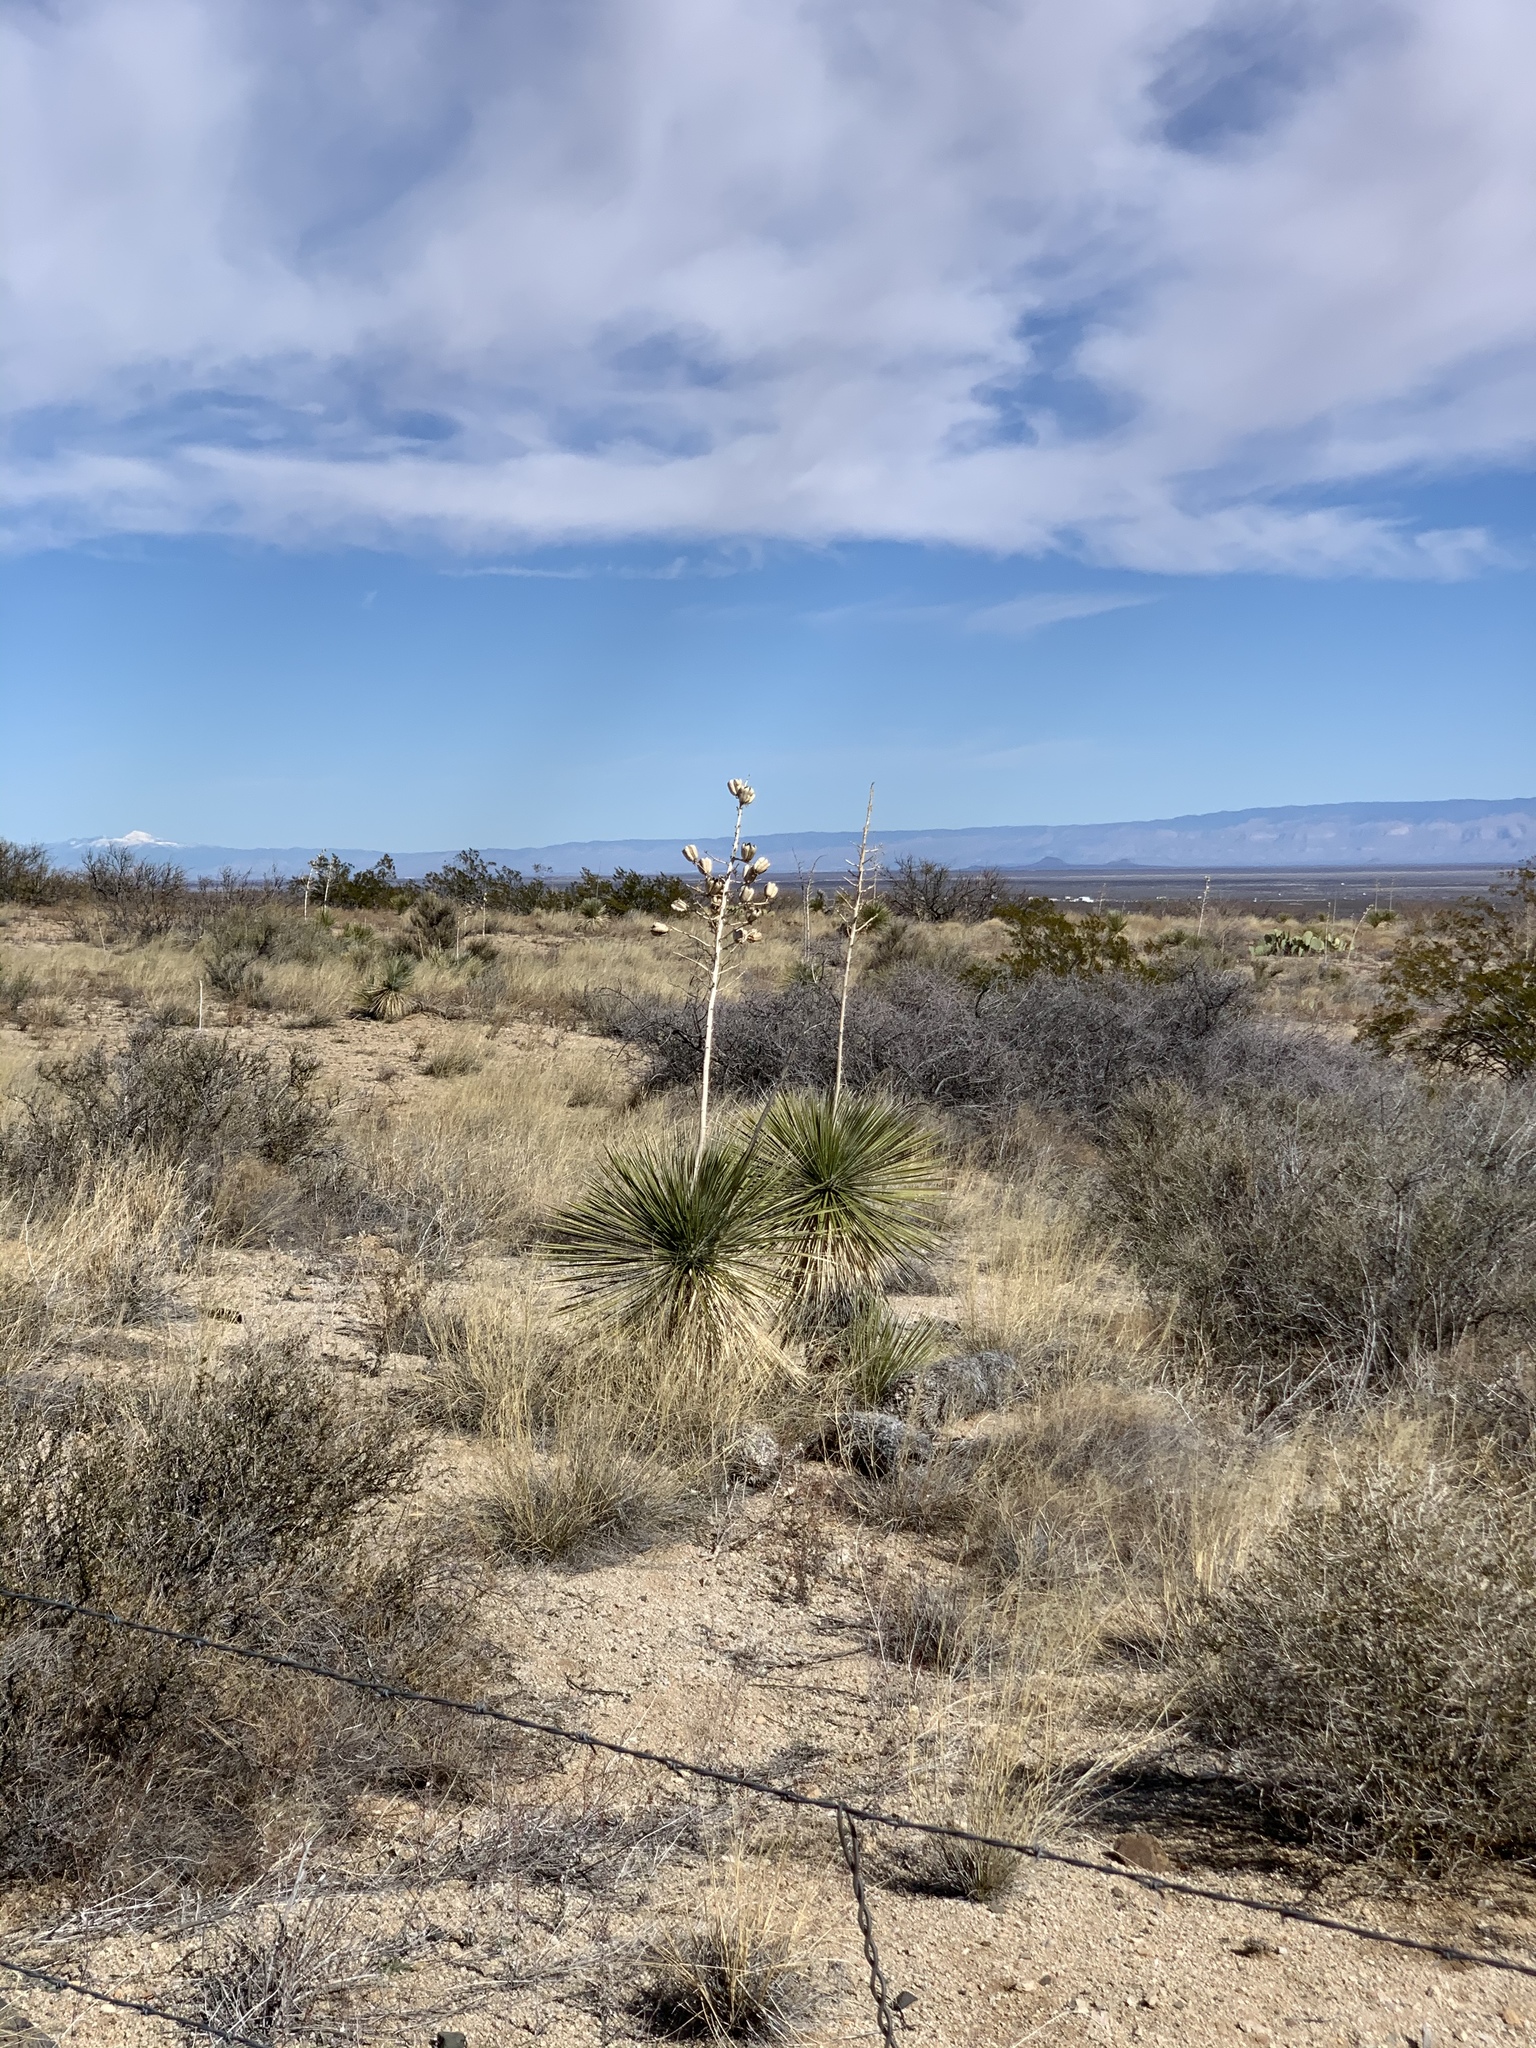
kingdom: Plantae
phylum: Tracheophyta
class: Liliopsida
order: Asparagales
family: Asparagaceae
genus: Yucca
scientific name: Yucca elata
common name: Palmella
